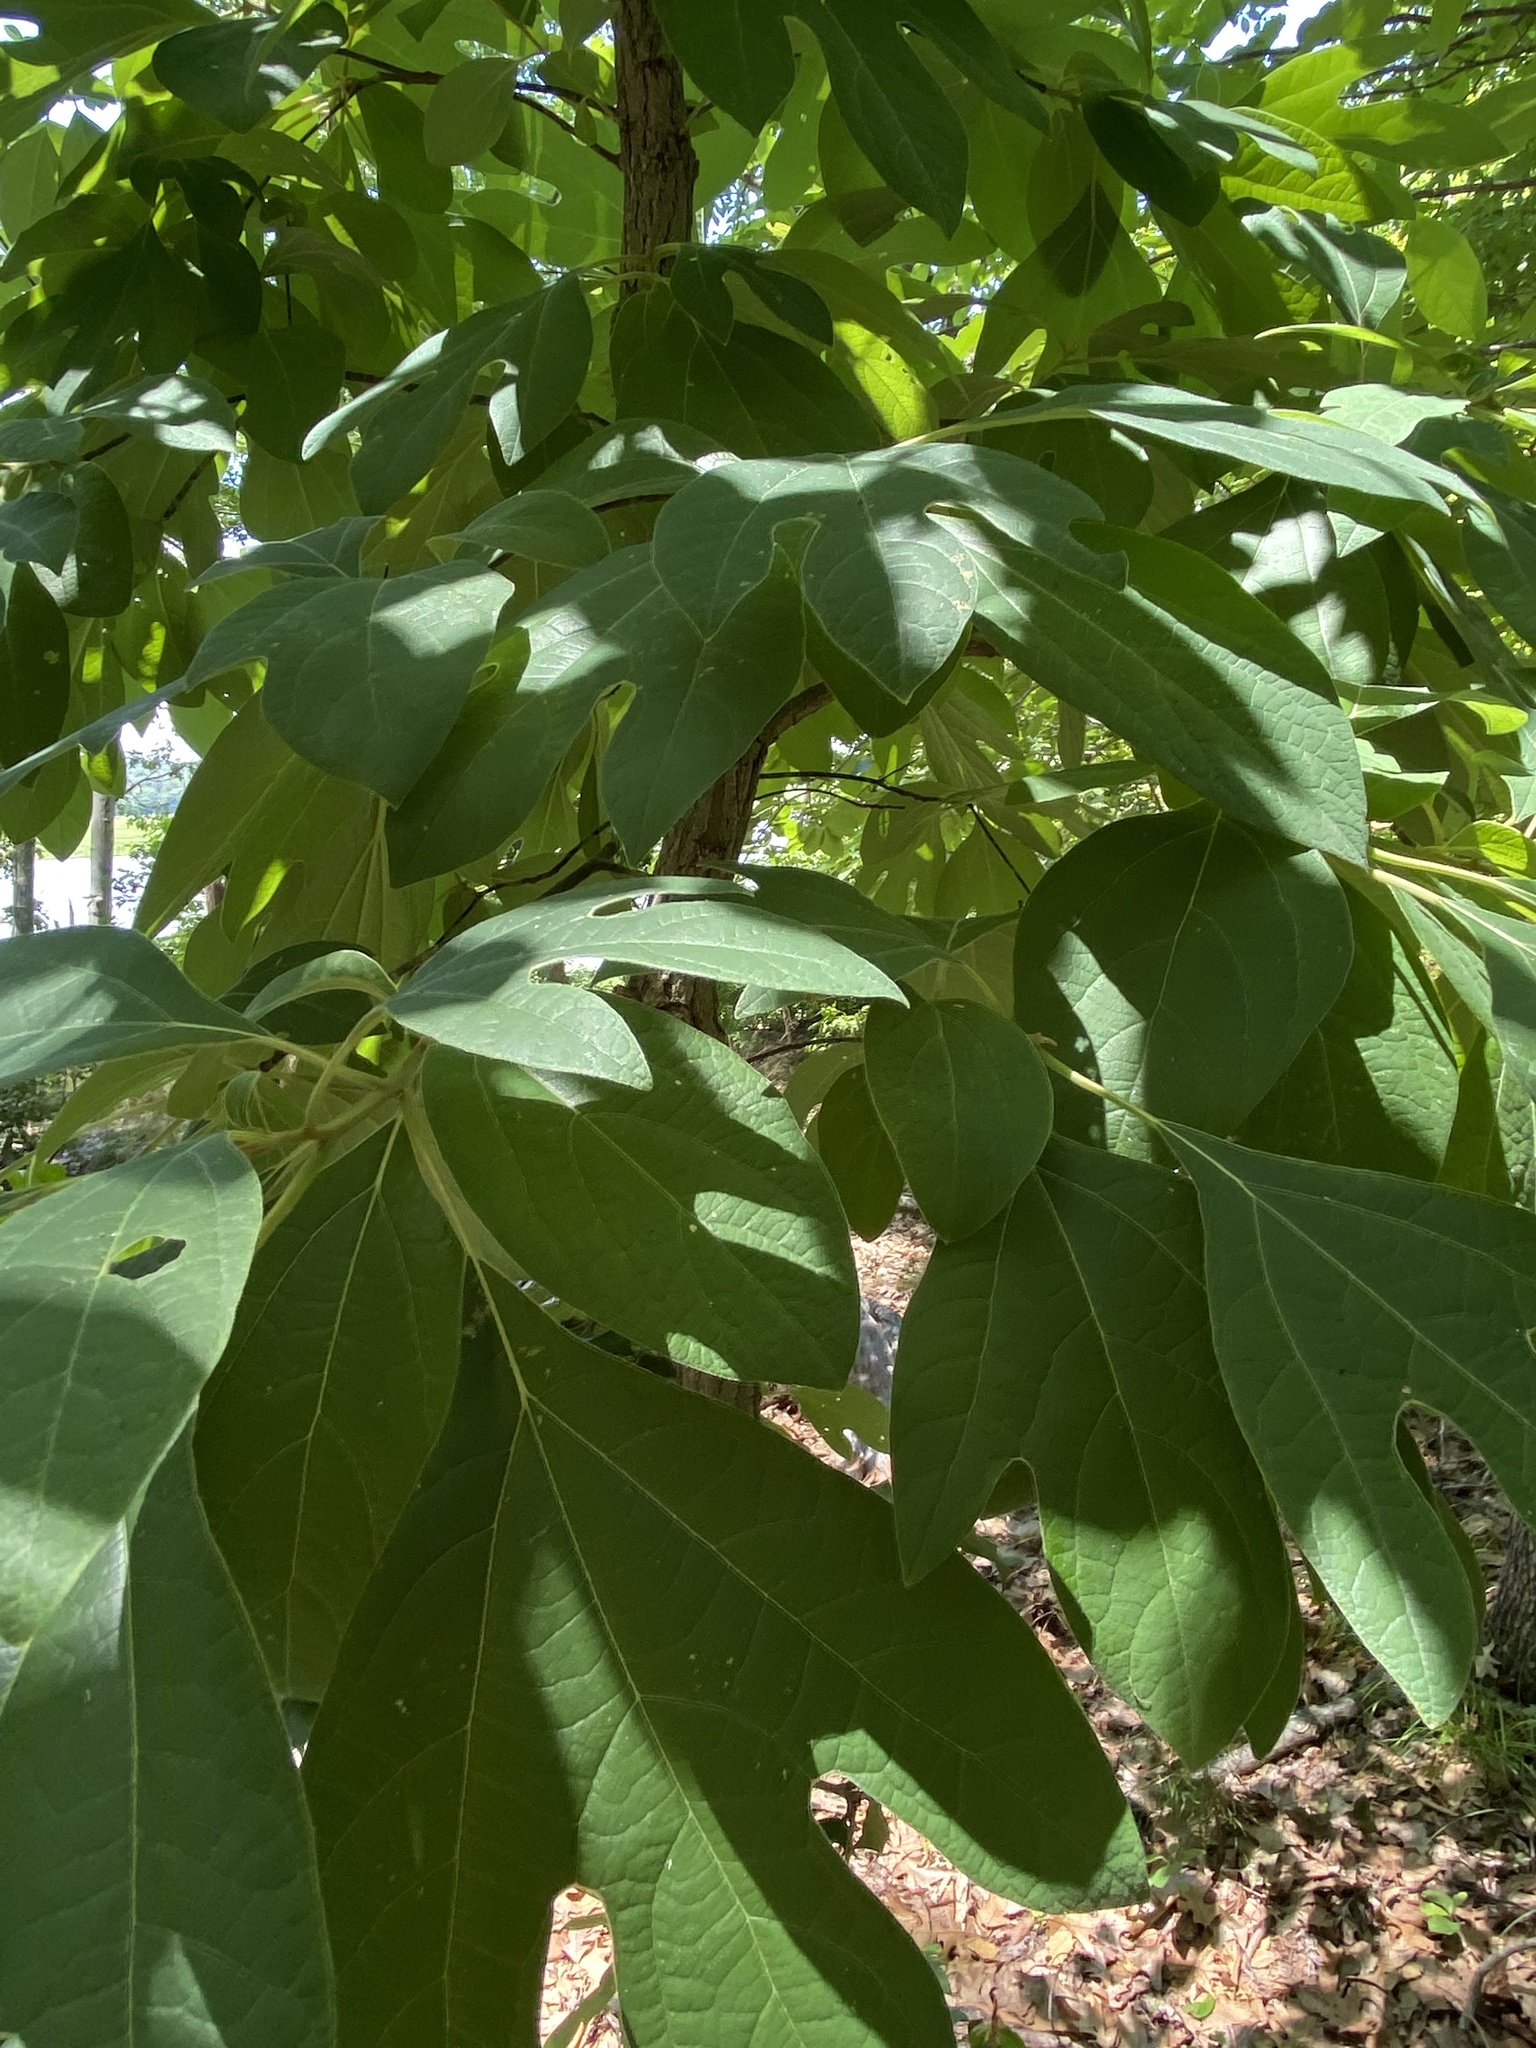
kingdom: Plantae
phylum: Tracheophyta
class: Magnoliopsida
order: Laurales
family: Lauraceae
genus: Sassafras
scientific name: Sassafras albidum
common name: Sassafras
